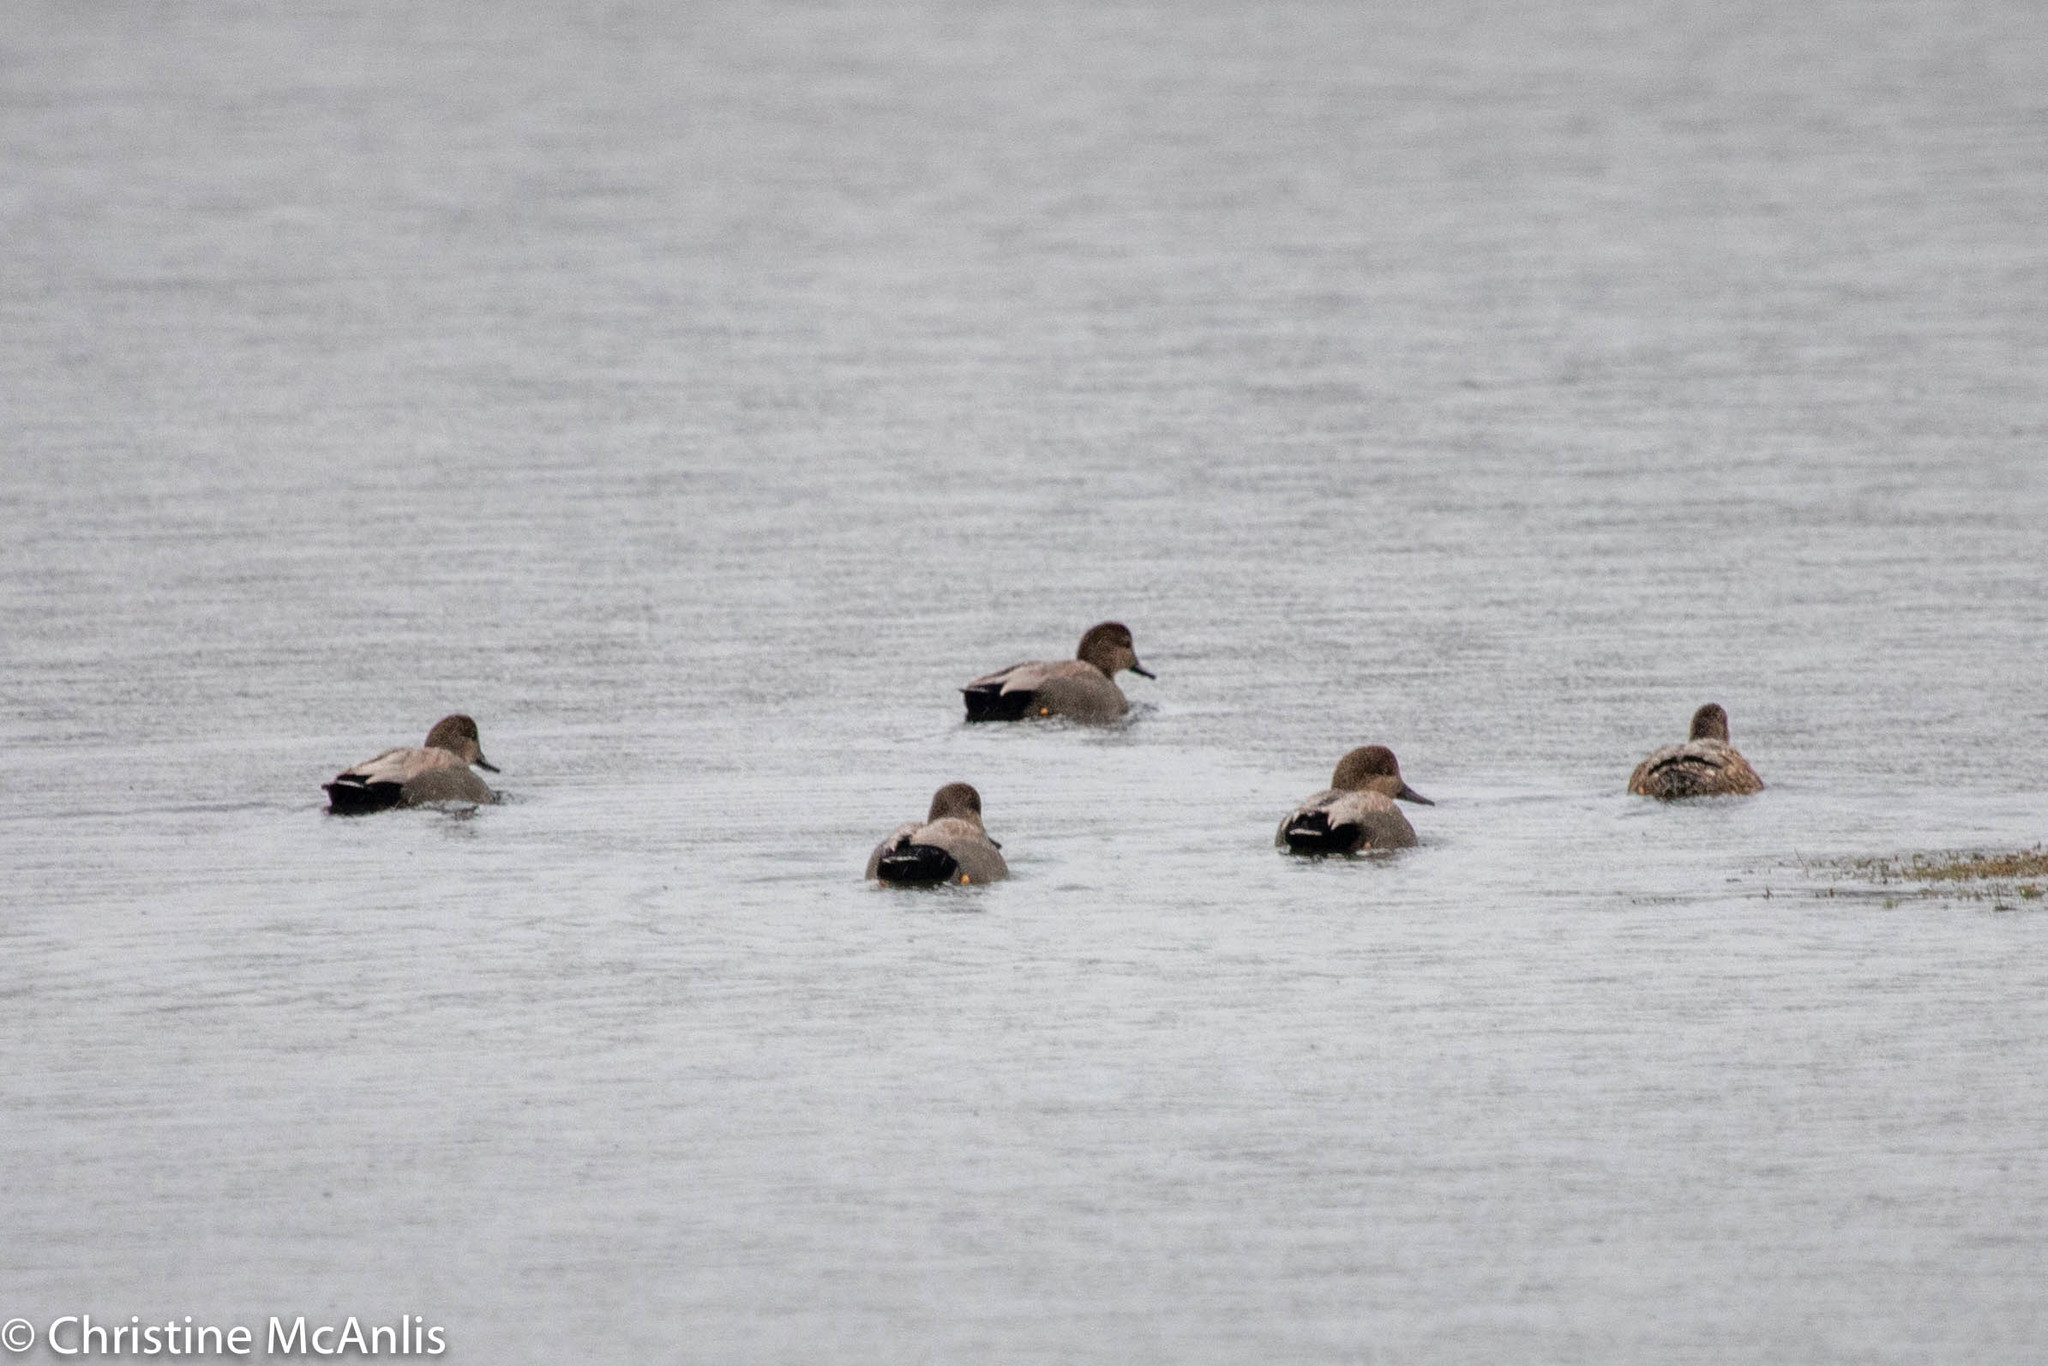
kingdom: Animalia
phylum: Chordata
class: Aves
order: Anseriformes
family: Anatidae
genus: Mareca
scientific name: Mareca strepera
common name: Gadwall
